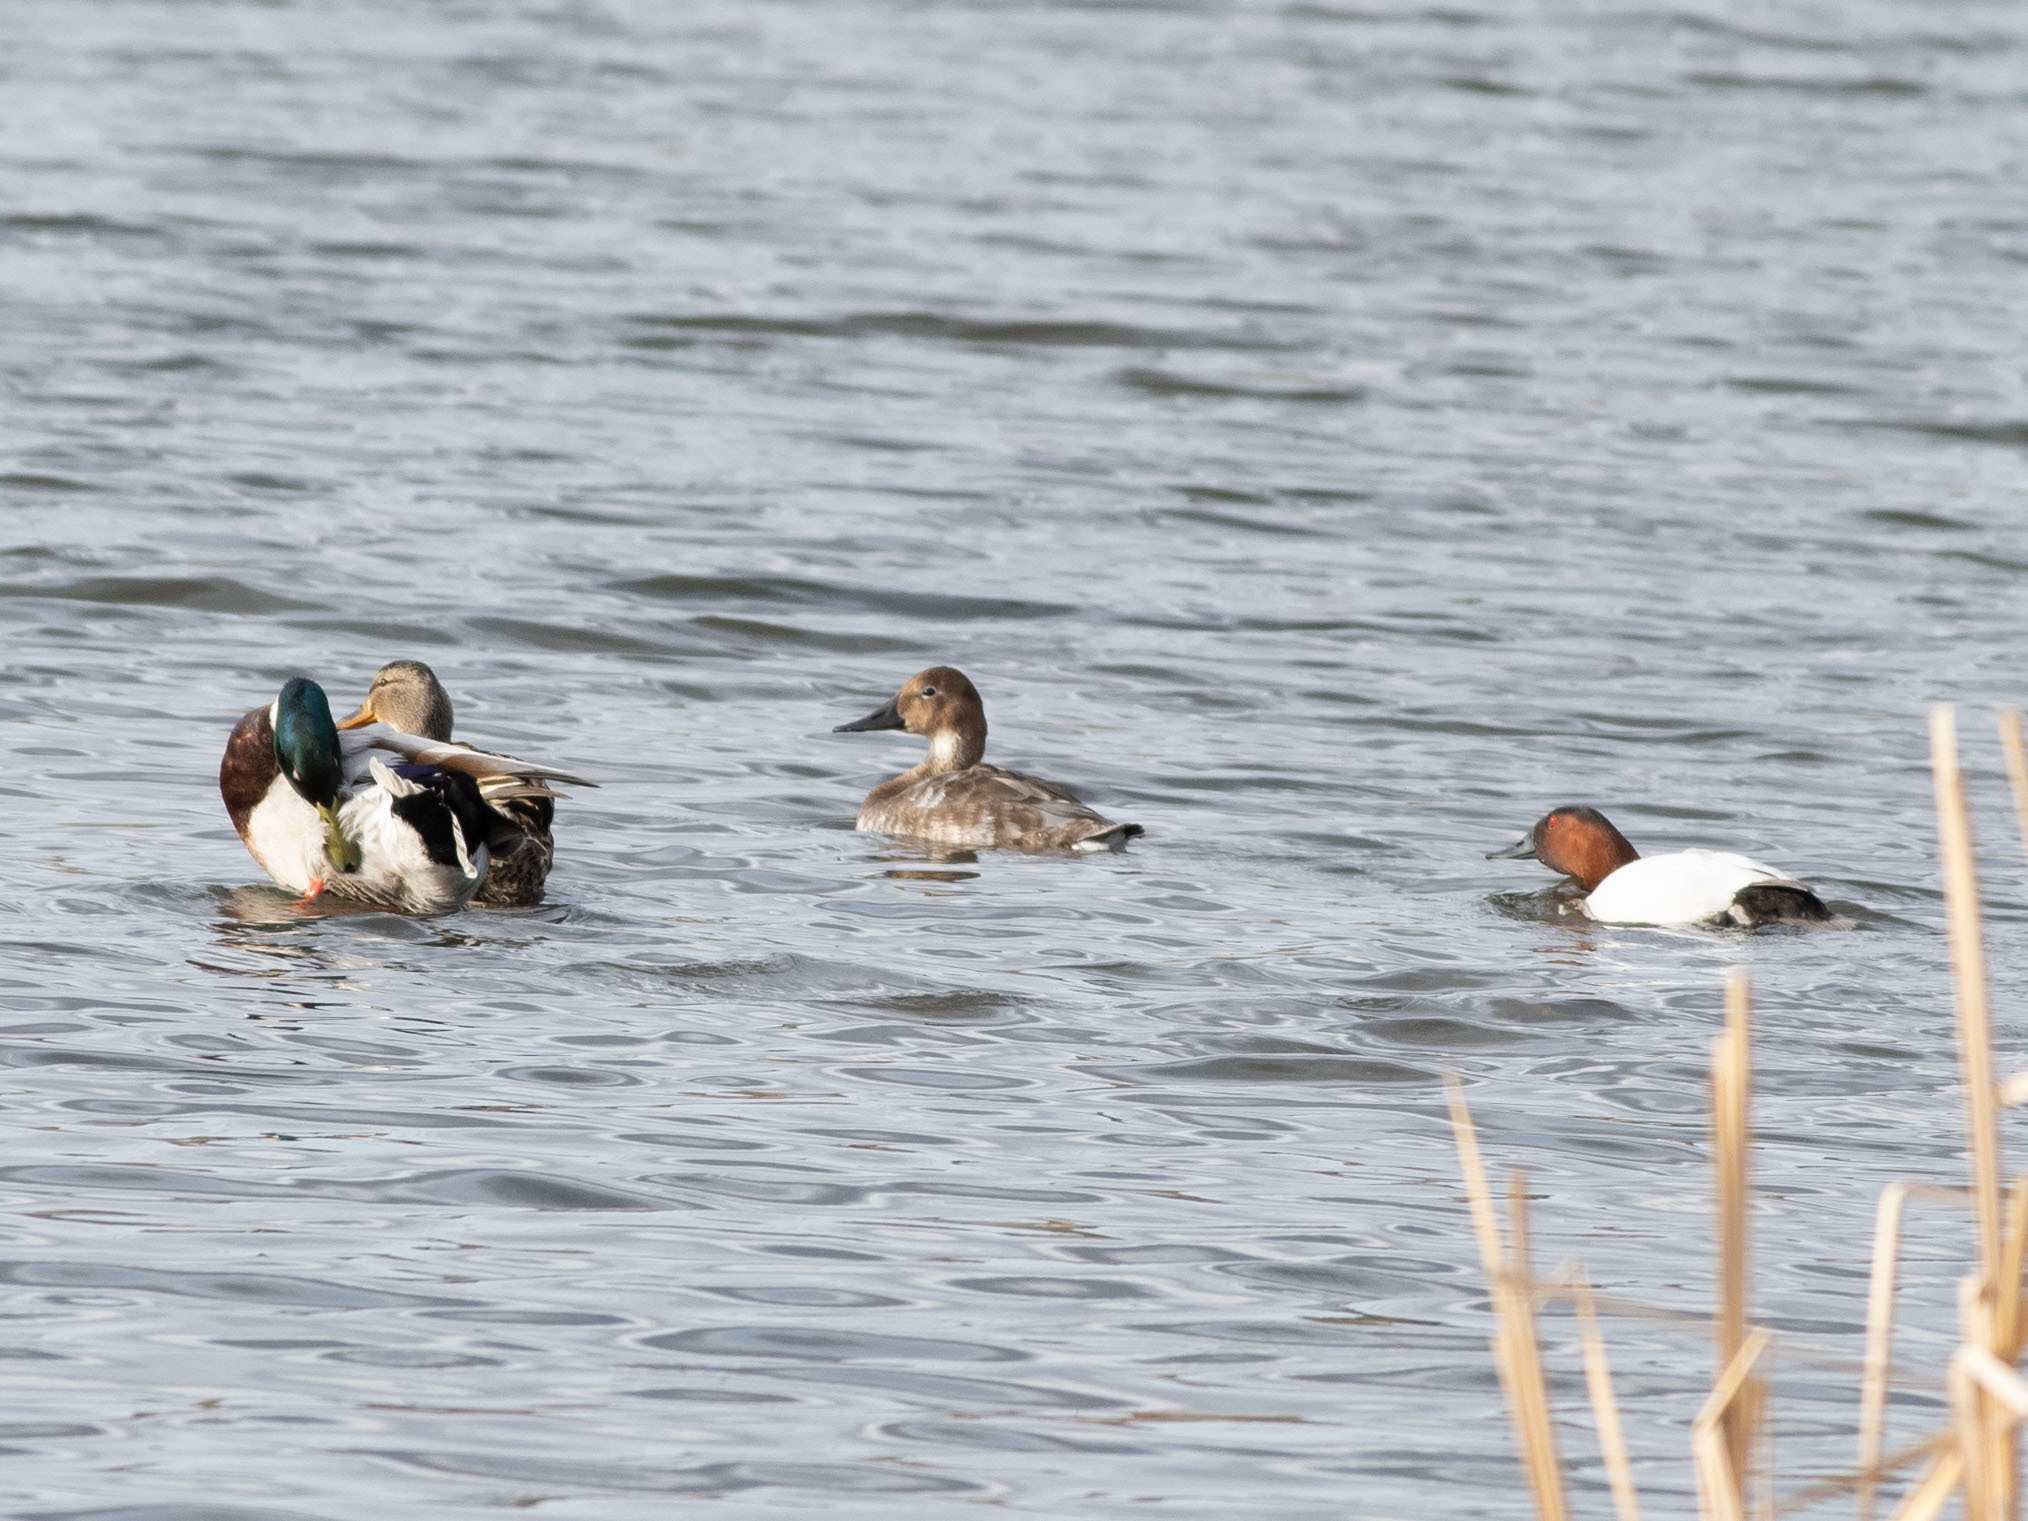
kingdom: Animalia
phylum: Chordata
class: Aves
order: Anseriformes
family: Anatidae
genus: Anas
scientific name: Anas platyrhynchos
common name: Mallard
